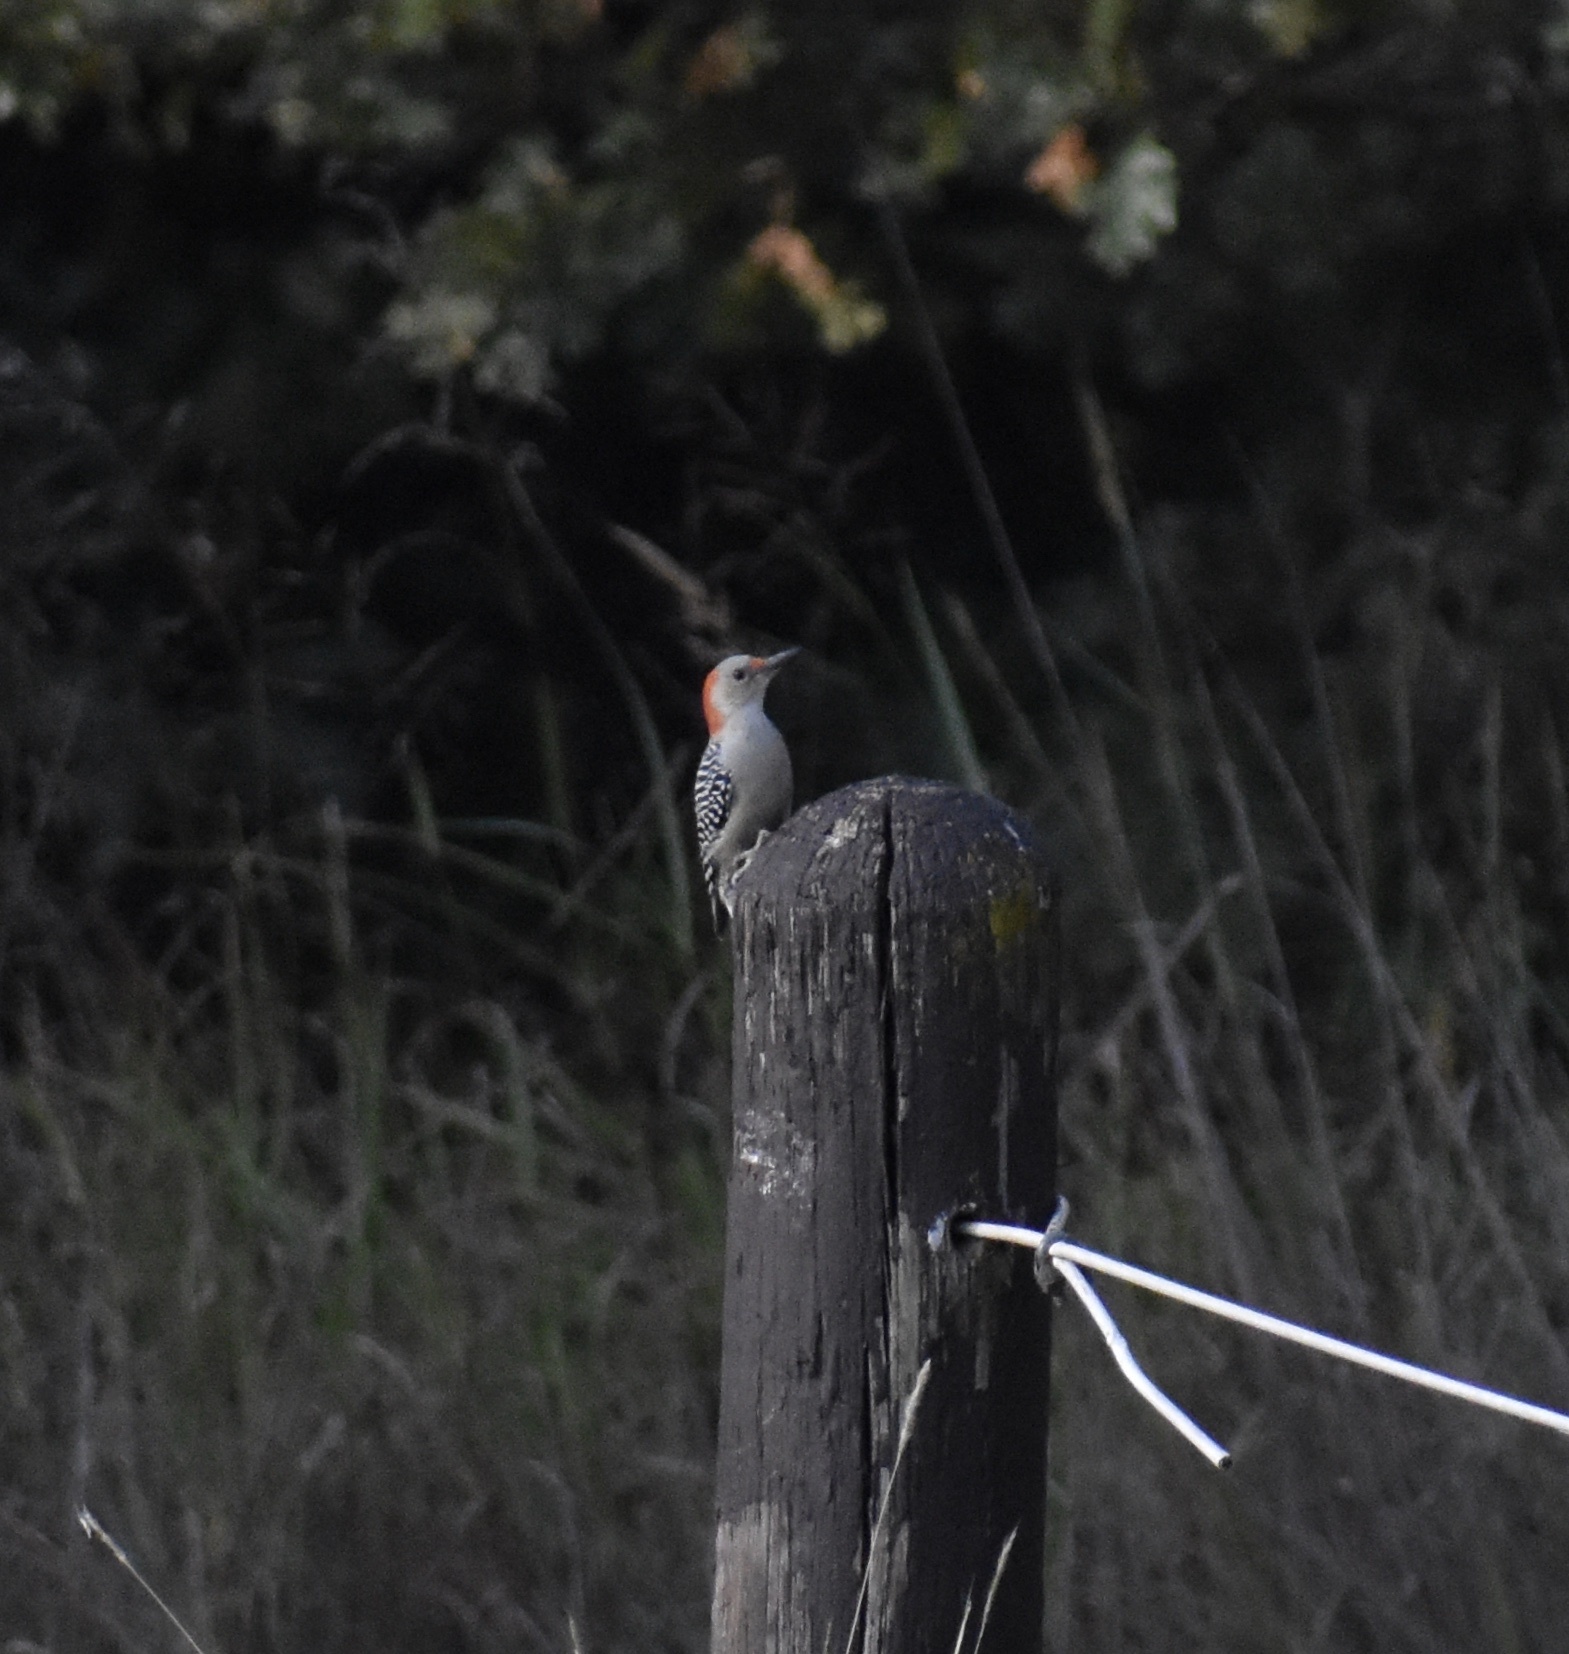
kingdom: Animalia
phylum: Chordata
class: Aves
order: Piciformes
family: Picidae
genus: Melanerpes
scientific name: Melanerpes carolinus
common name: Red-bellied woodpecker
